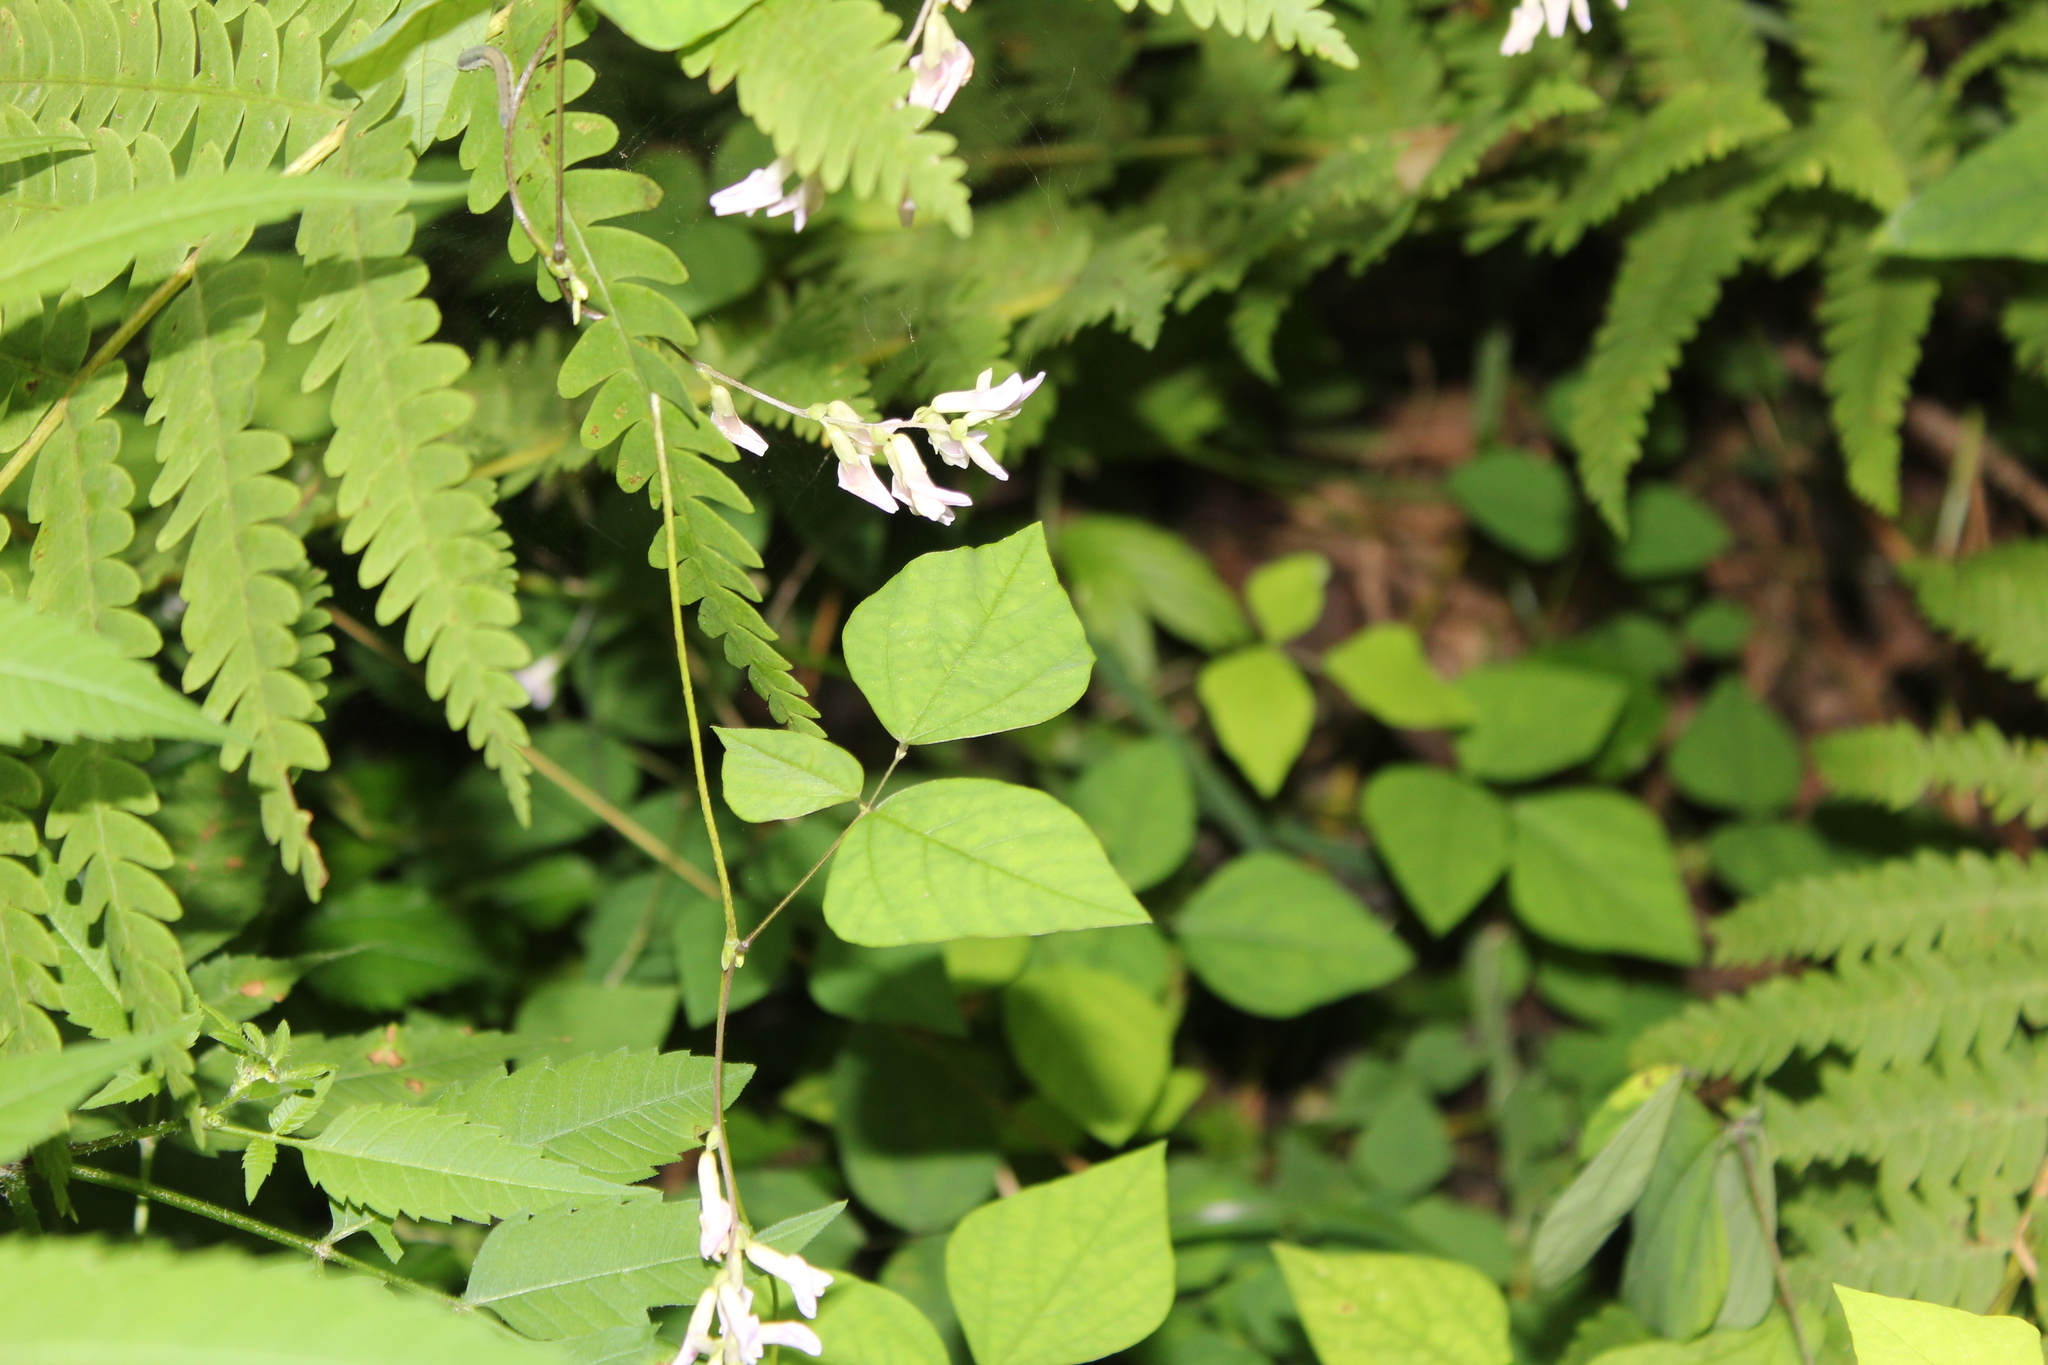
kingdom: Plantae
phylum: Tracheophyta
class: Magnoliopsida
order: Fabales
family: Fabaceae
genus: Amphicarpaea
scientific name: Amphicarpaea bracteata
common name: American hog peanut
